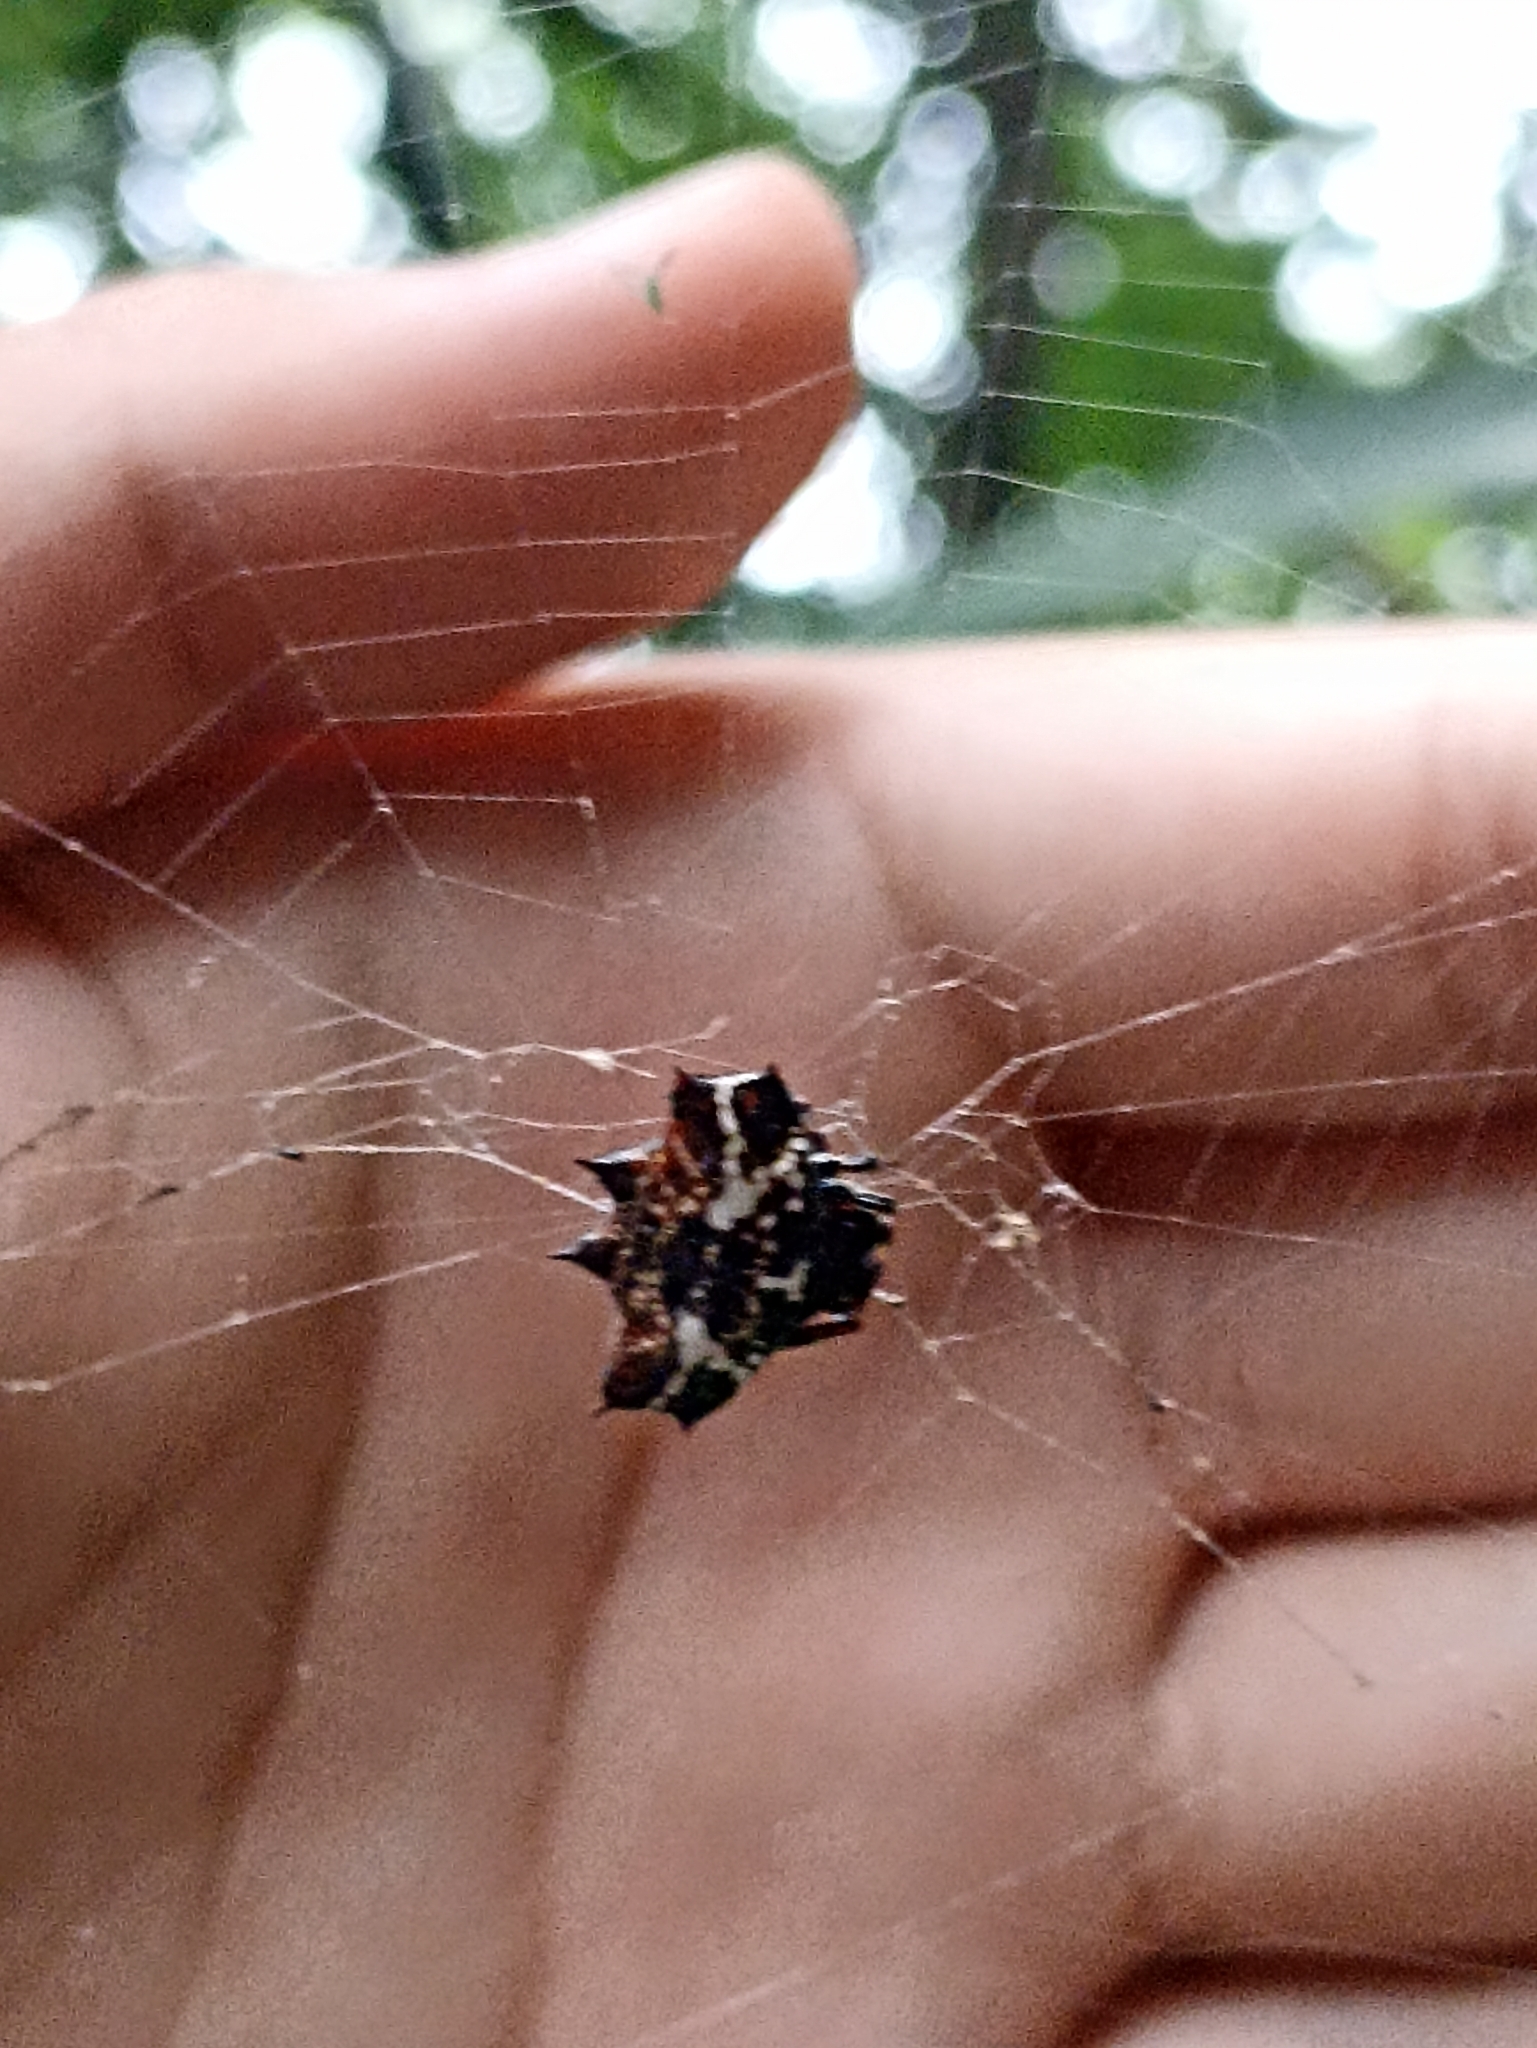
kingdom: Animalia
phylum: Arthropoda
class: Arachnida
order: Araneae
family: Araneidae
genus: Gasteracantha
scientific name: Gasteracantha cancriformis
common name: Orb weavers
